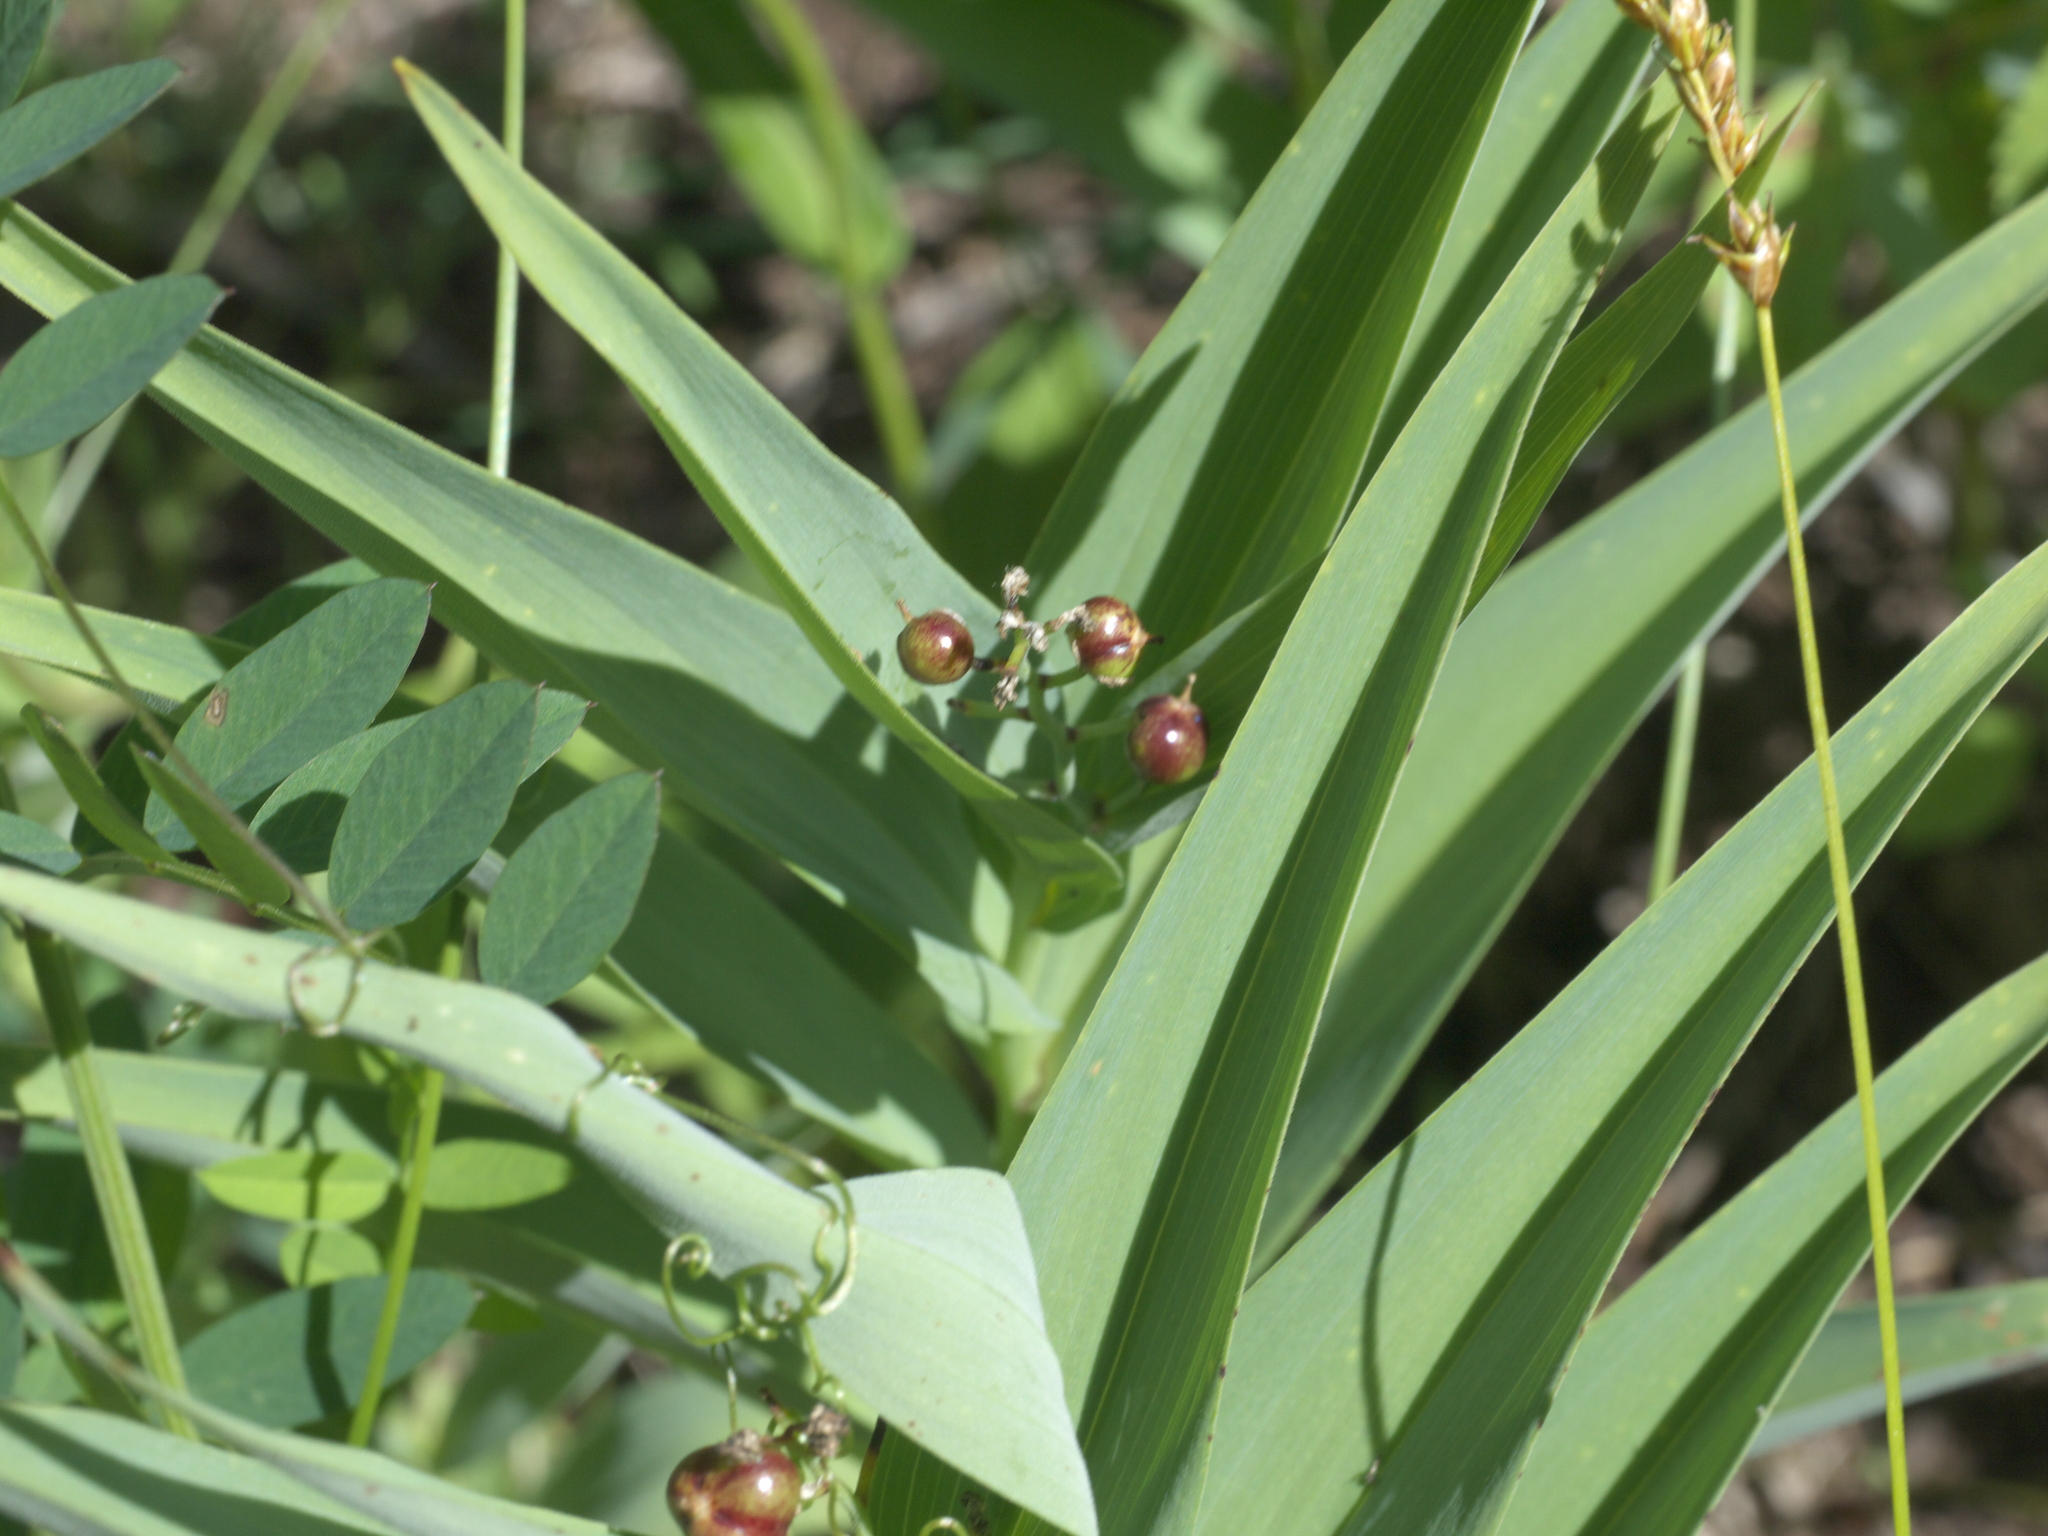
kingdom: Plantae
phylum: Tracheophyta
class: Liliopsida
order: Asparagales
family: Asparagaceae
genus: Maianthemum
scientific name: Maianthemum stellatum
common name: Little false solomon's seal
